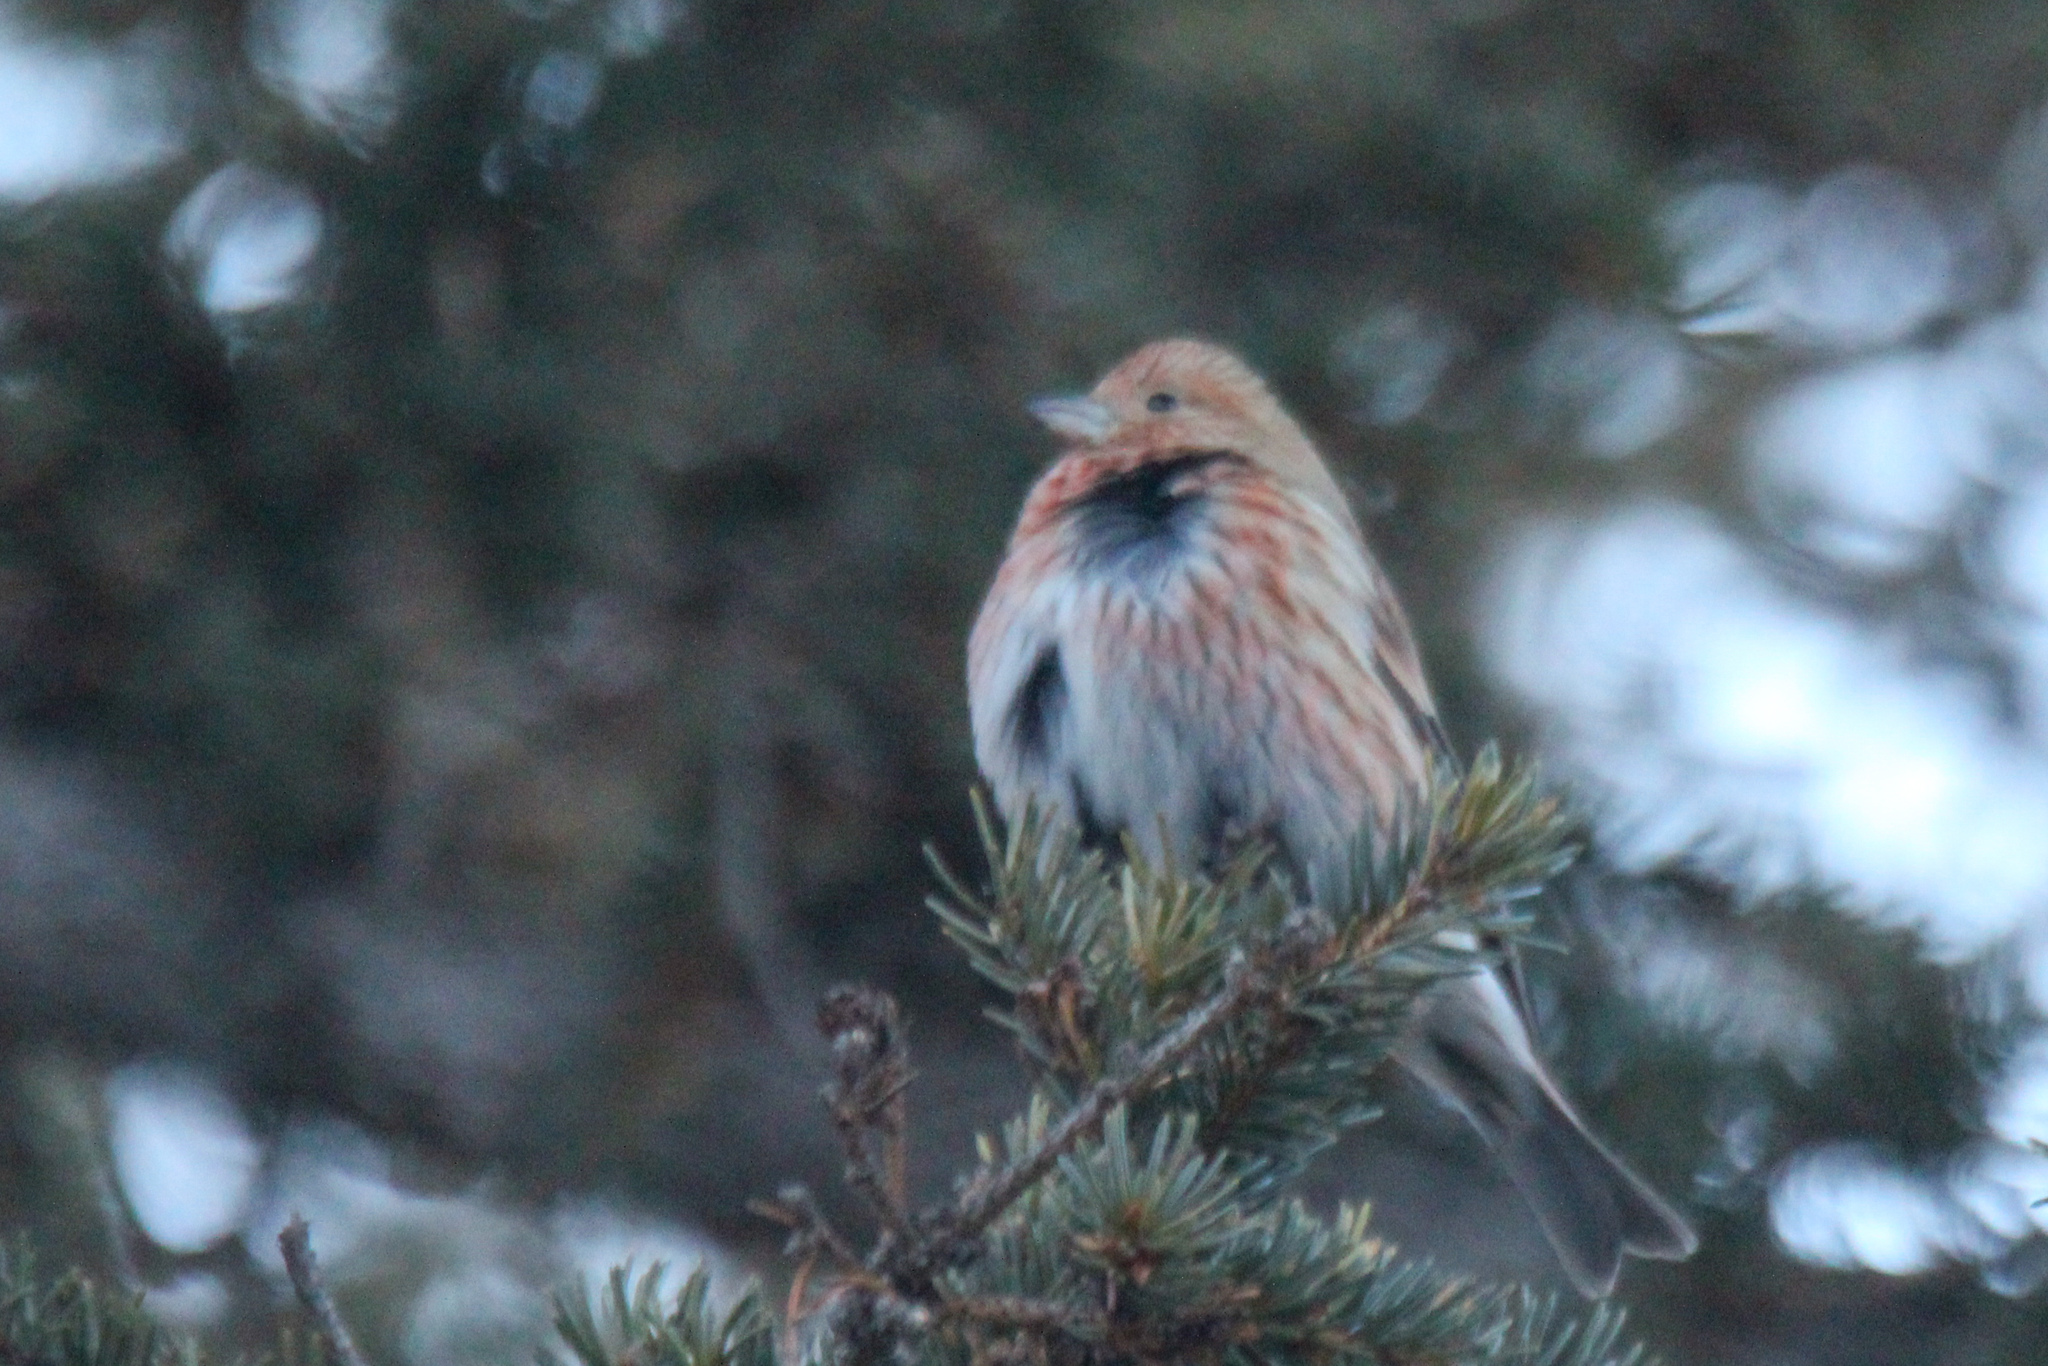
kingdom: Animalia
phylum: Chordata
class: Aves
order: Passeriformes
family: Fringillidae
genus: Carpodacus
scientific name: Carpodacus roseus
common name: Pallas's rosefinch
